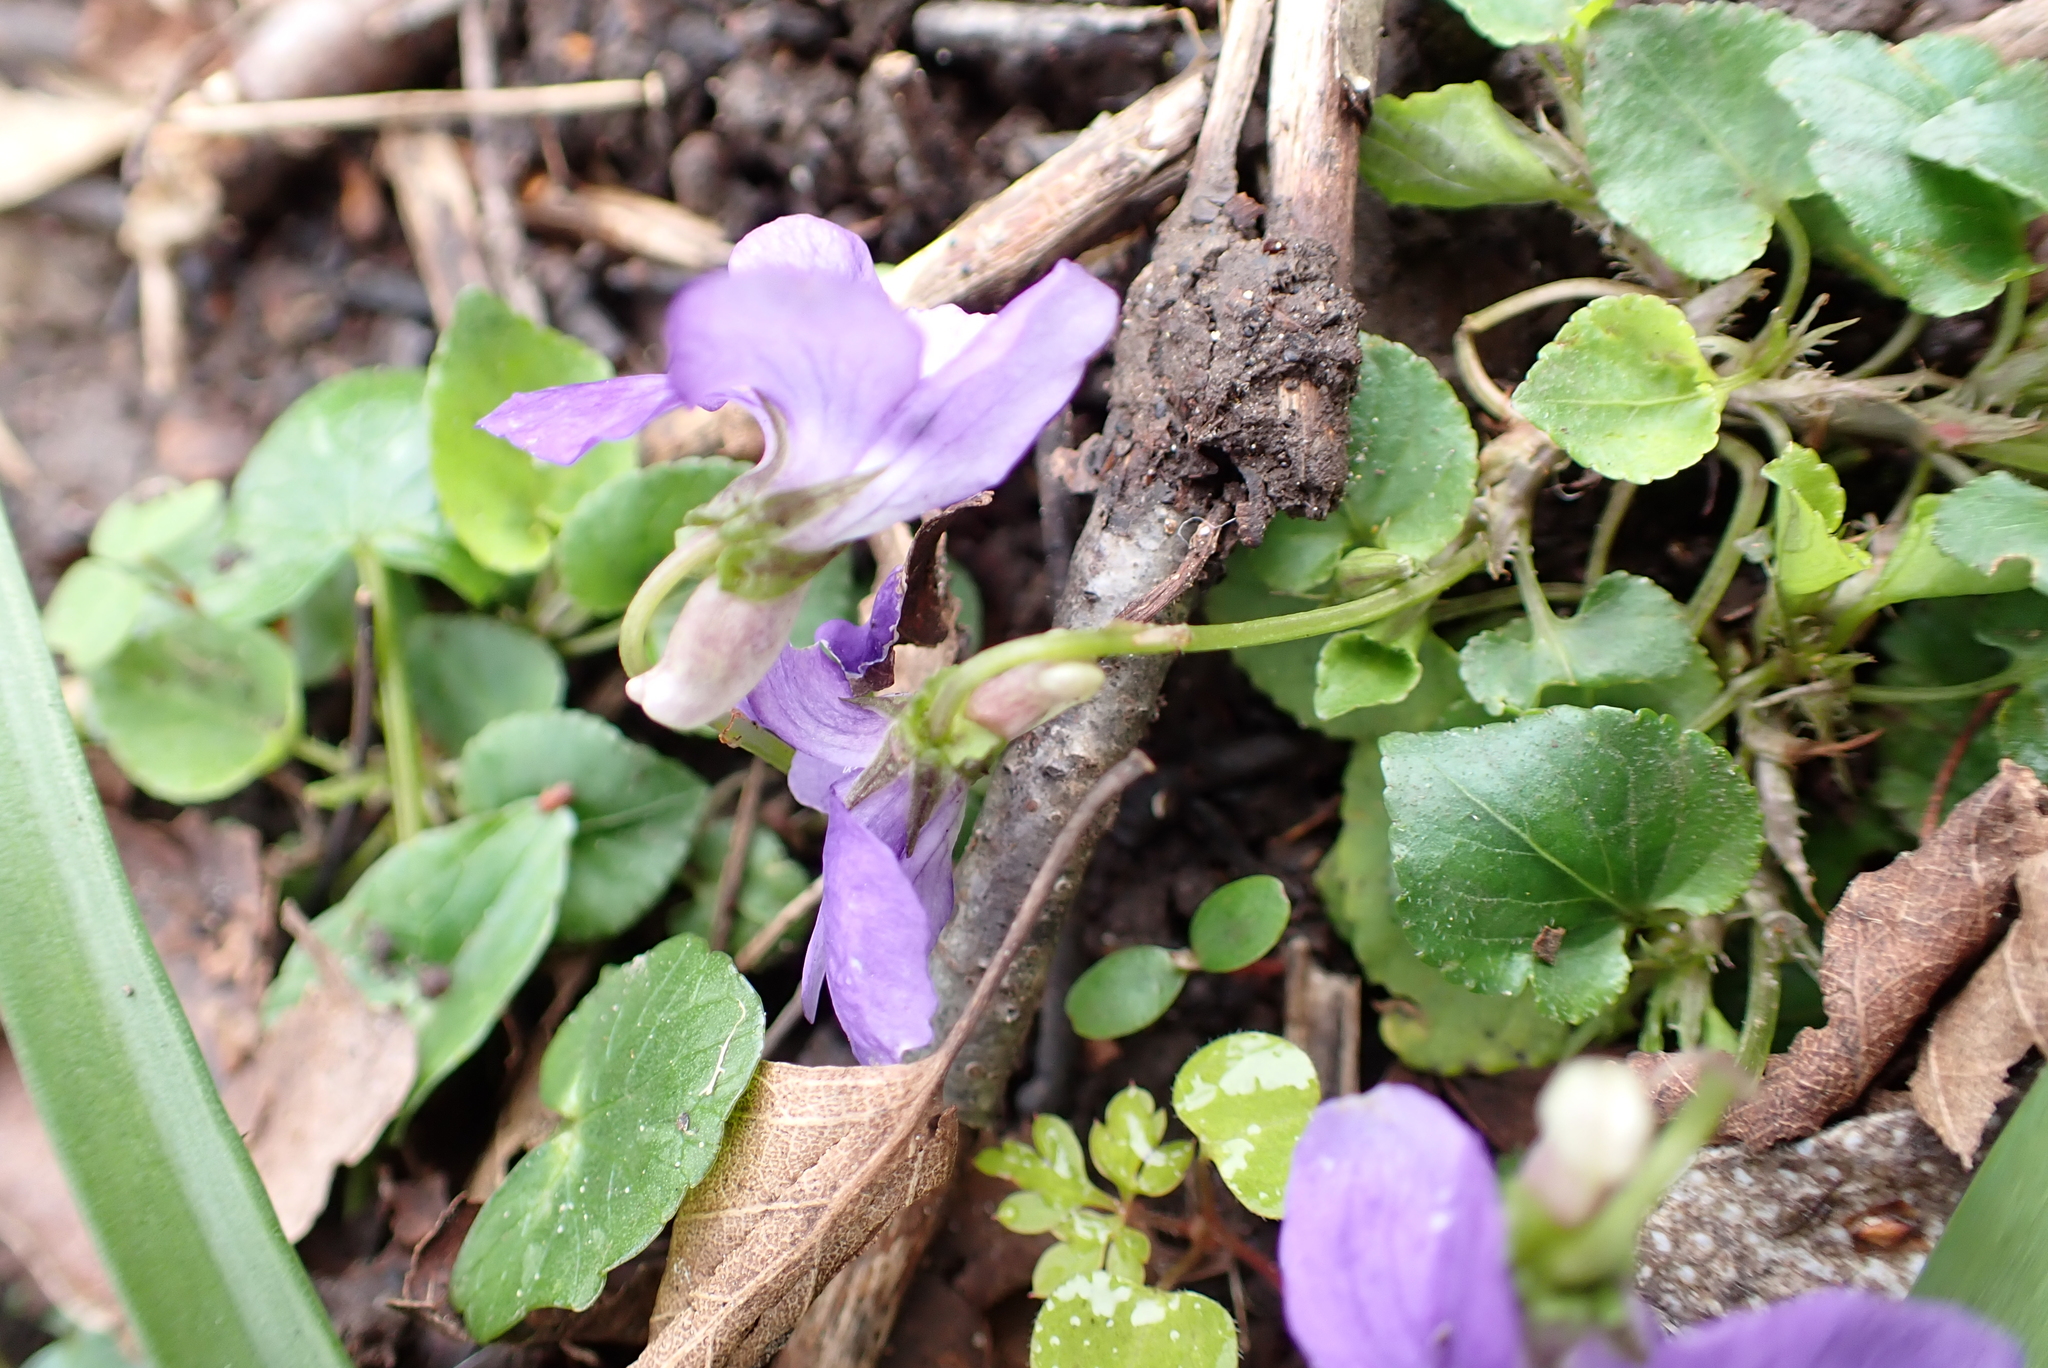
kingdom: Plantae
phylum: Tracheophyta
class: Magnoliopsida
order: Malpighiales
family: Violaceae
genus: Viola
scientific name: Viola riviniana
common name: Common dog-violet
